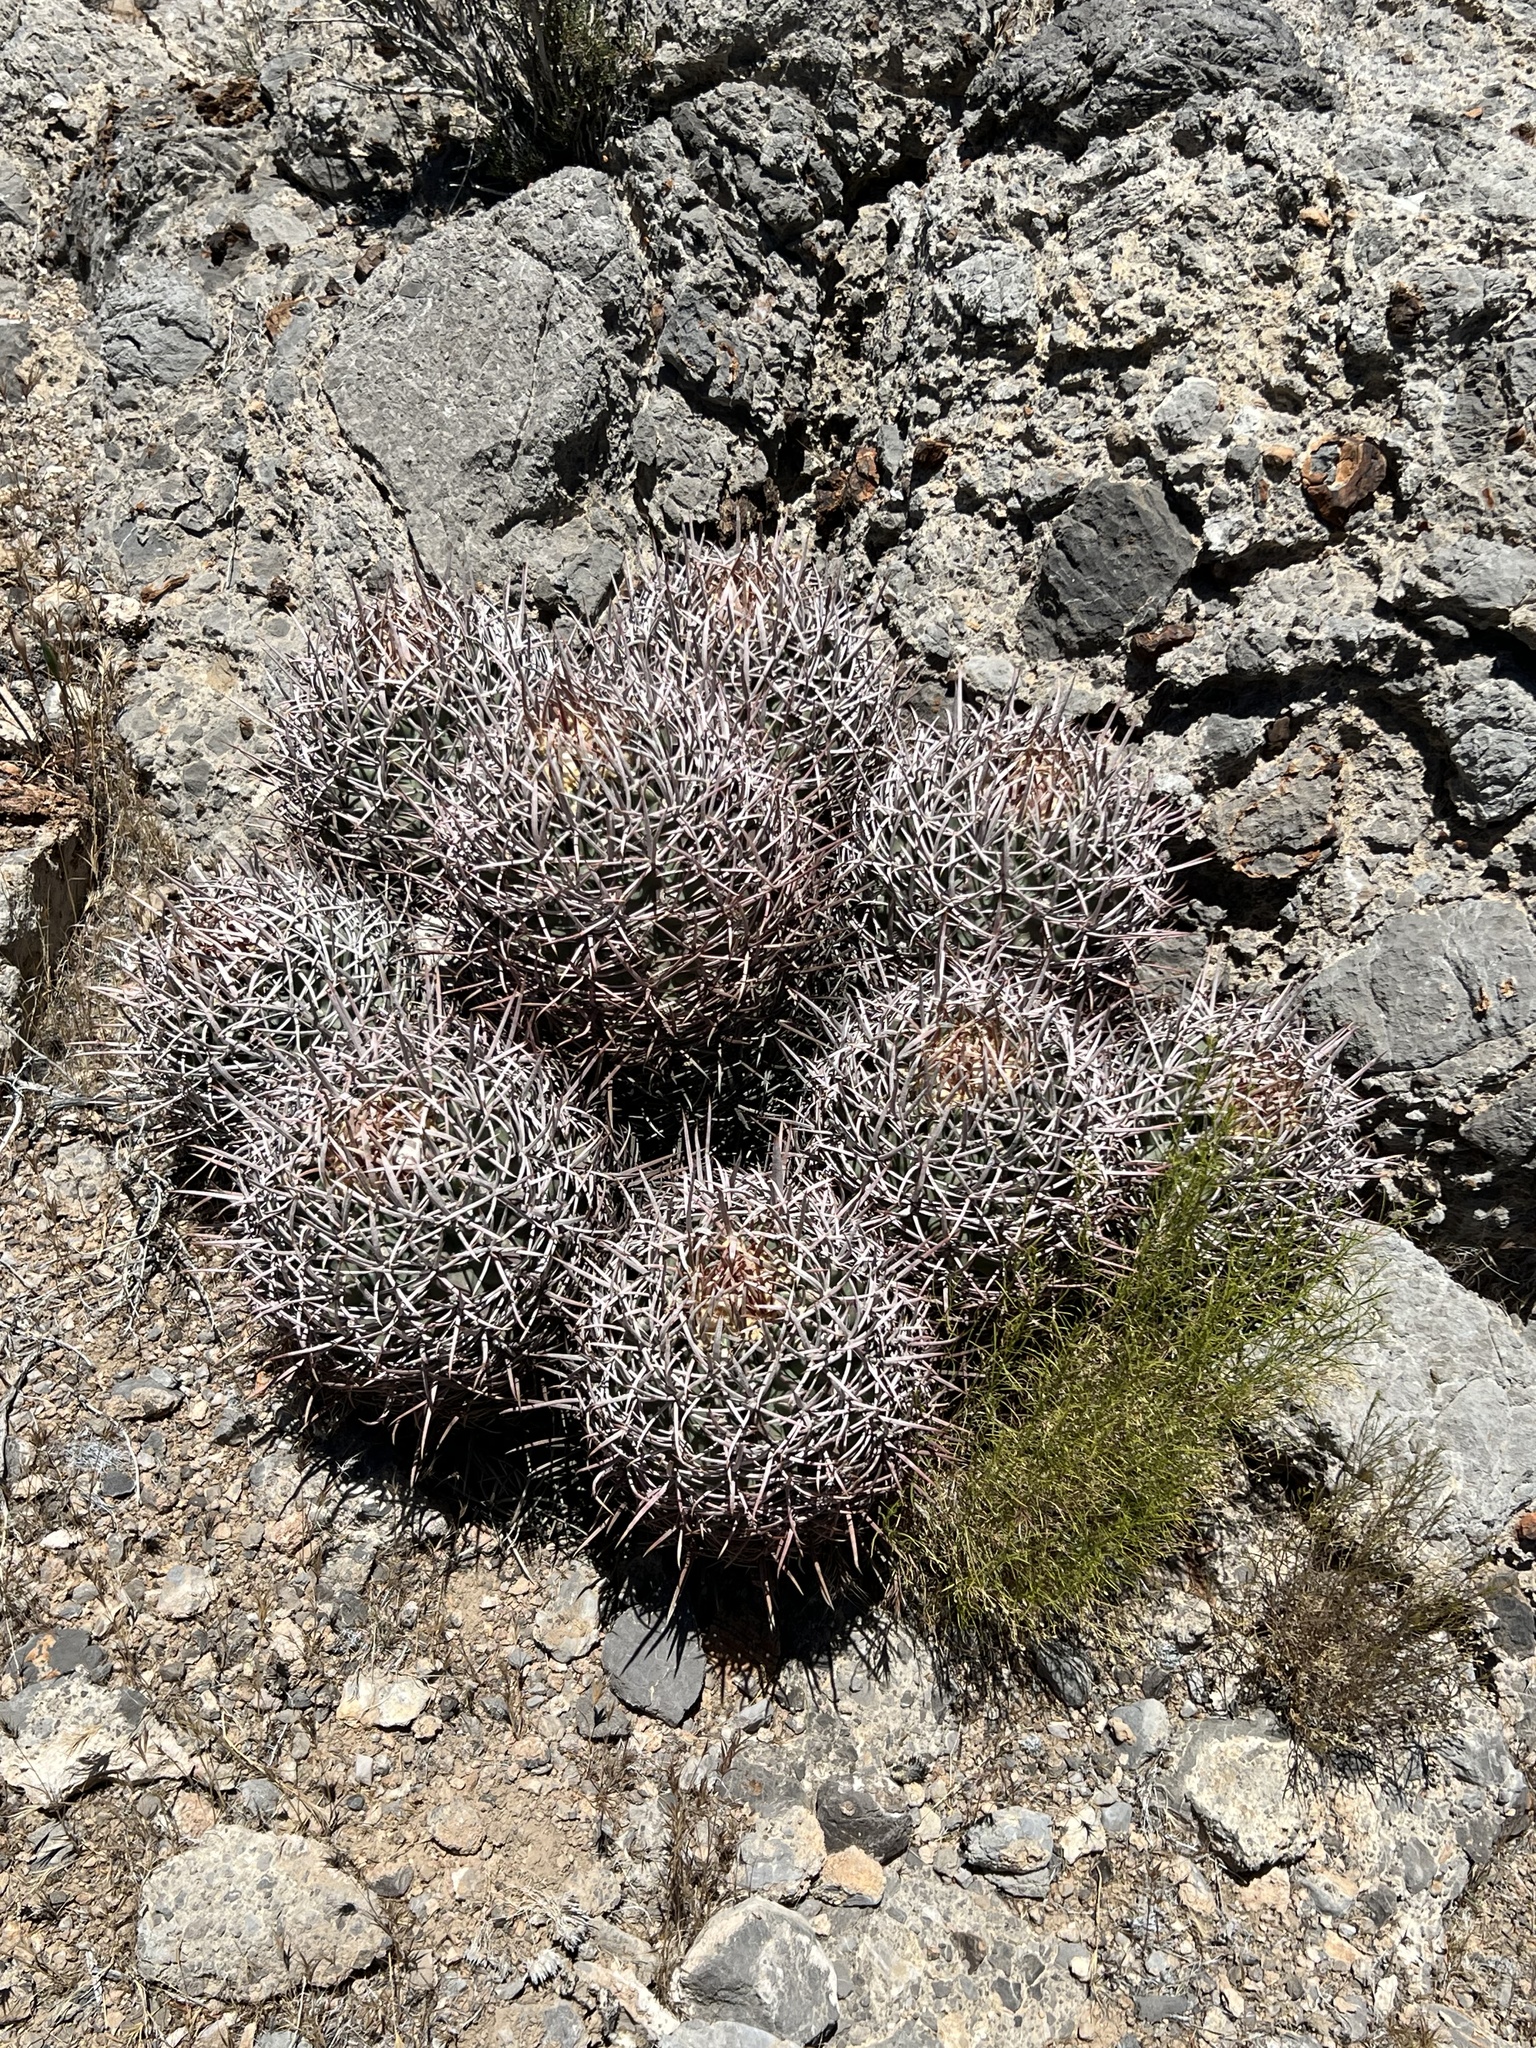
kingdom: Plantae
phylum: Tracheophyta
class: Magnoliopsida
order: Caryophyllales
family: Cactaceae
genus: Echinocactus
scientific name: Echinocactus polycephalus
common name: Cottontop cactus
